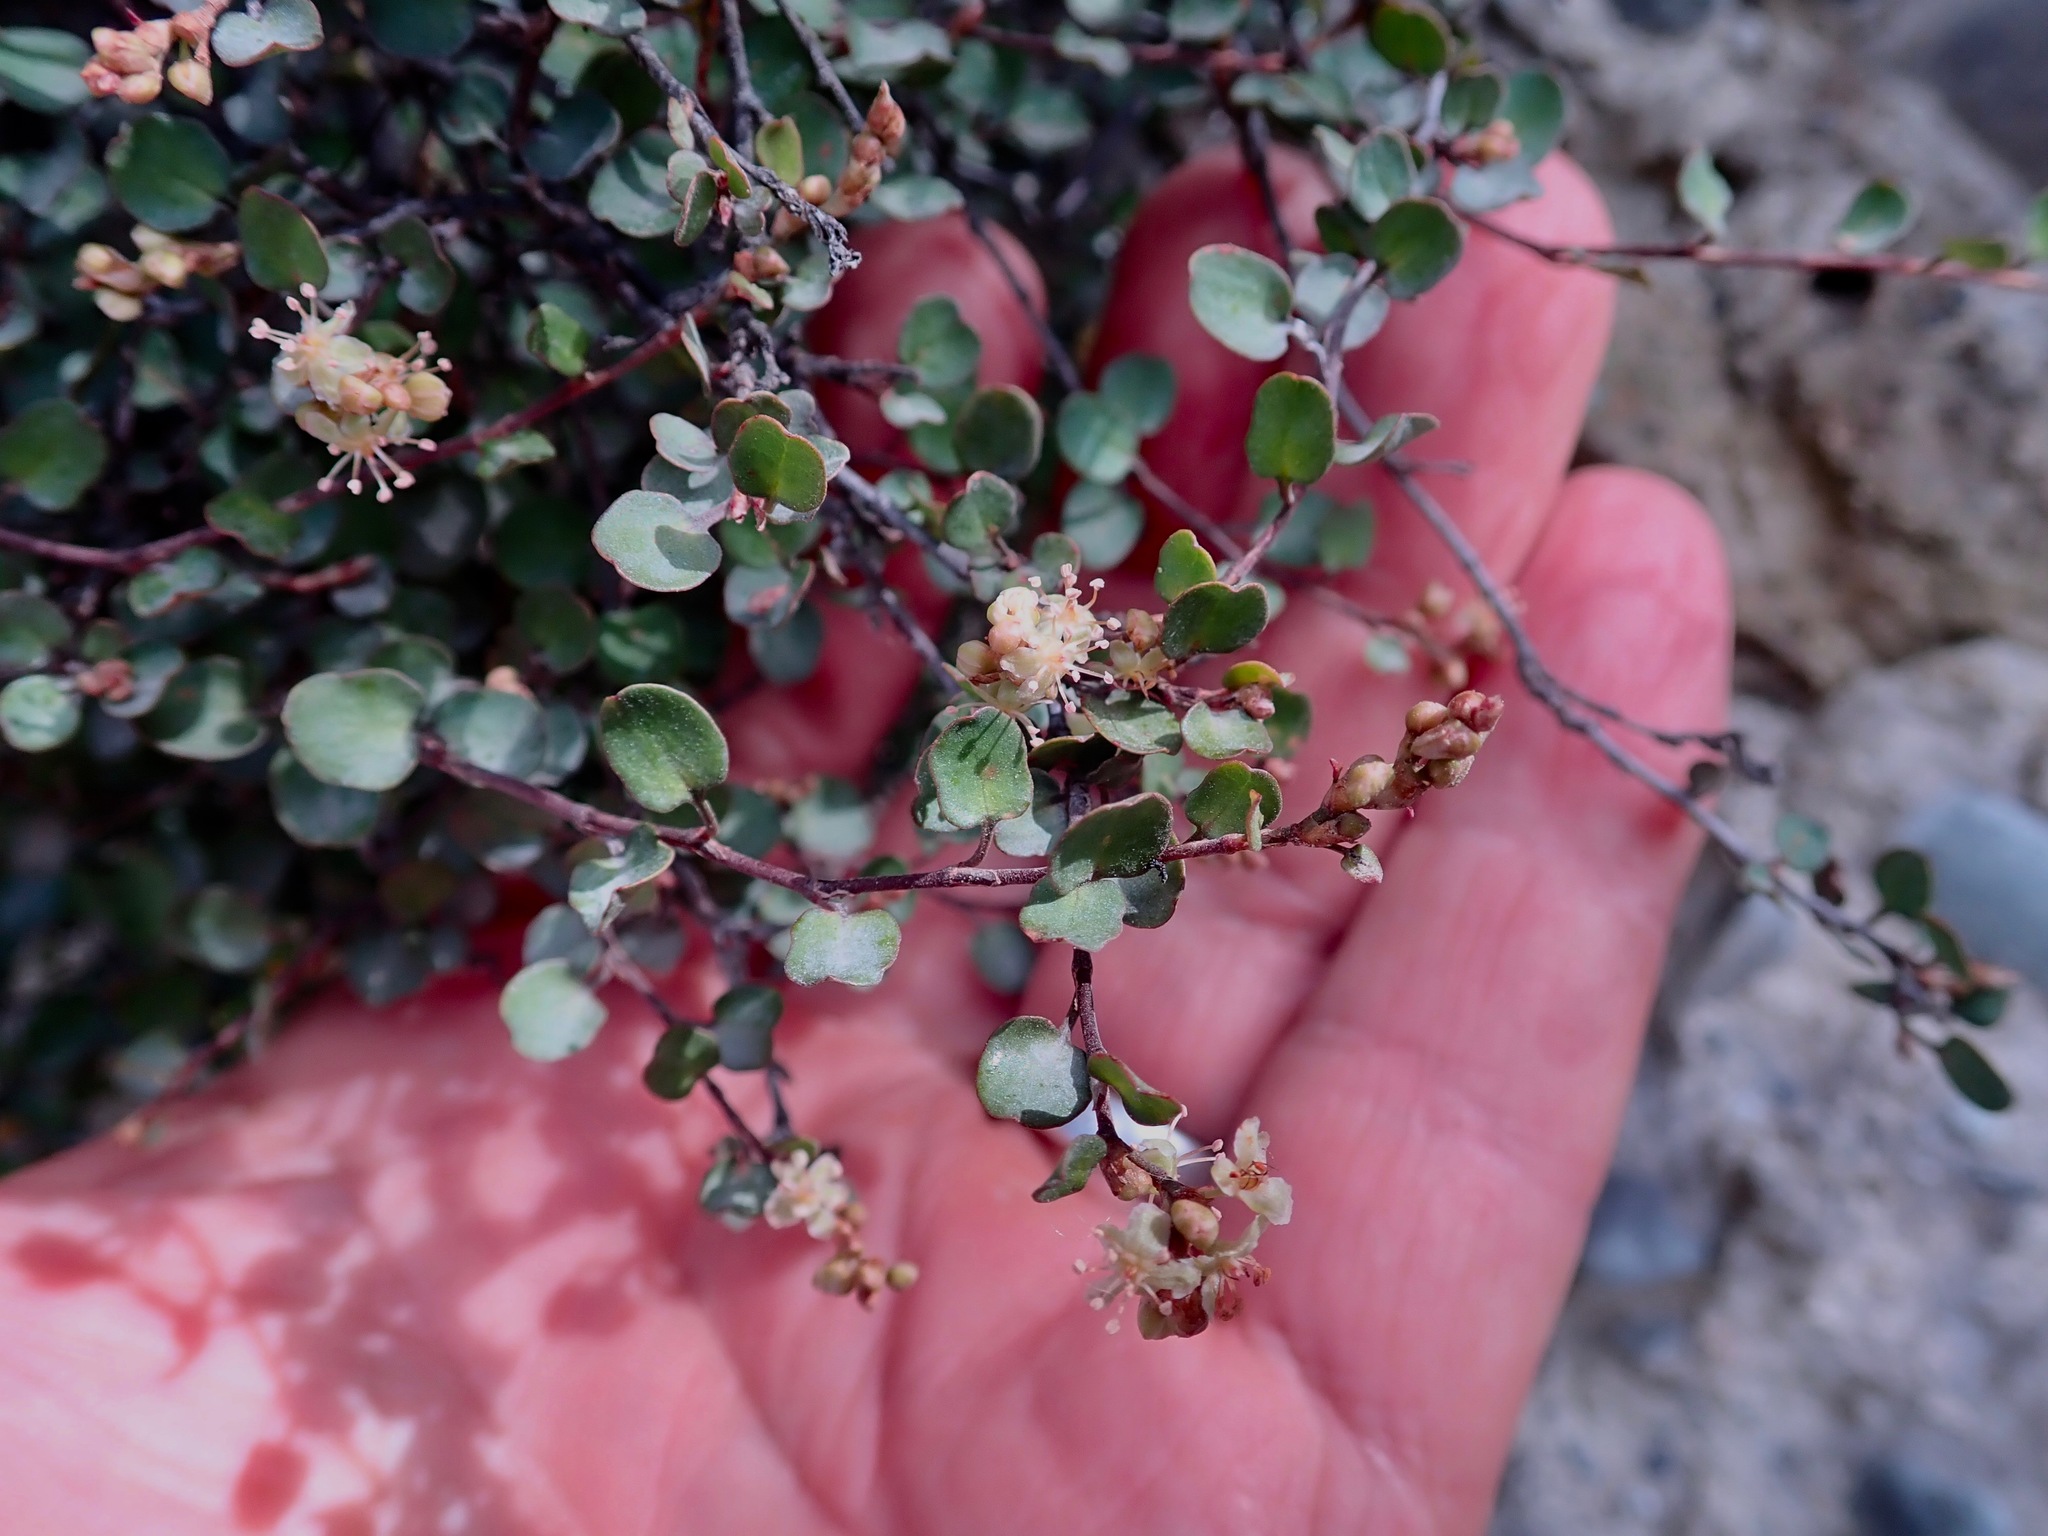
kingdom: Plantae
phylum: Tracheophyta
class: Magnoliopsida
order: Caryophyllales
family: Polygonaceae
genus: Muehlenbeckia
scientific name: Muehlenbeckia axillaris
